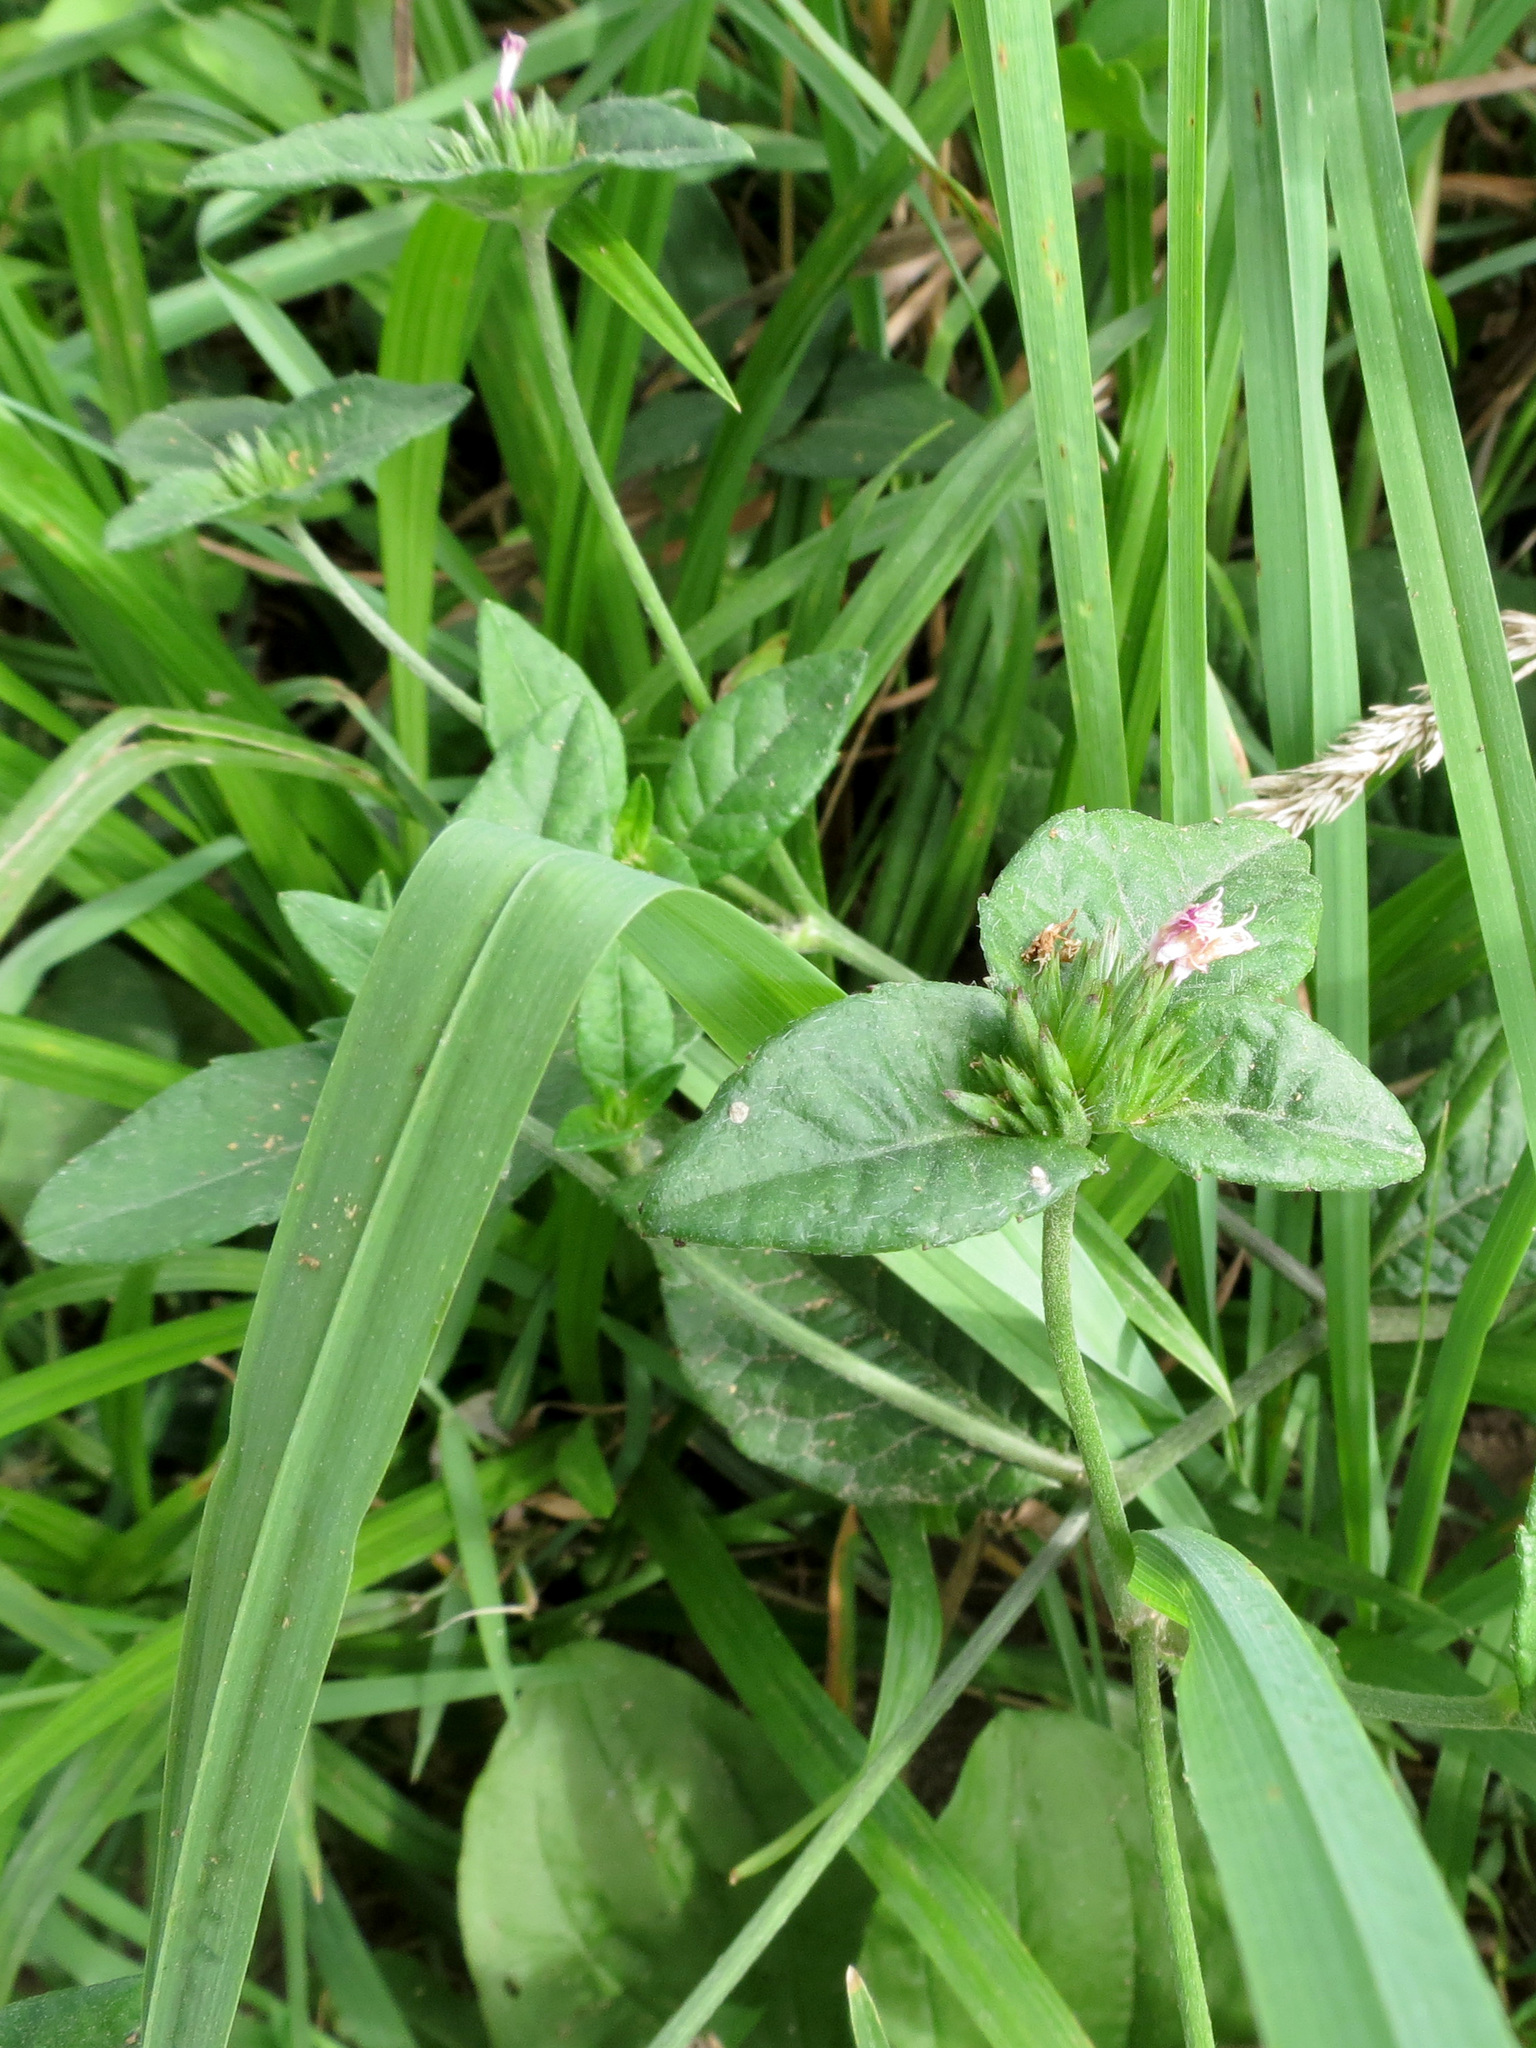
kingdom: Plantae
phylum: Tracheophyta
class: Magnoliopsida
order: Asterales
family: Asteraceae
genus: Elephantopus
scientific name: Elephantopus carolinianus
